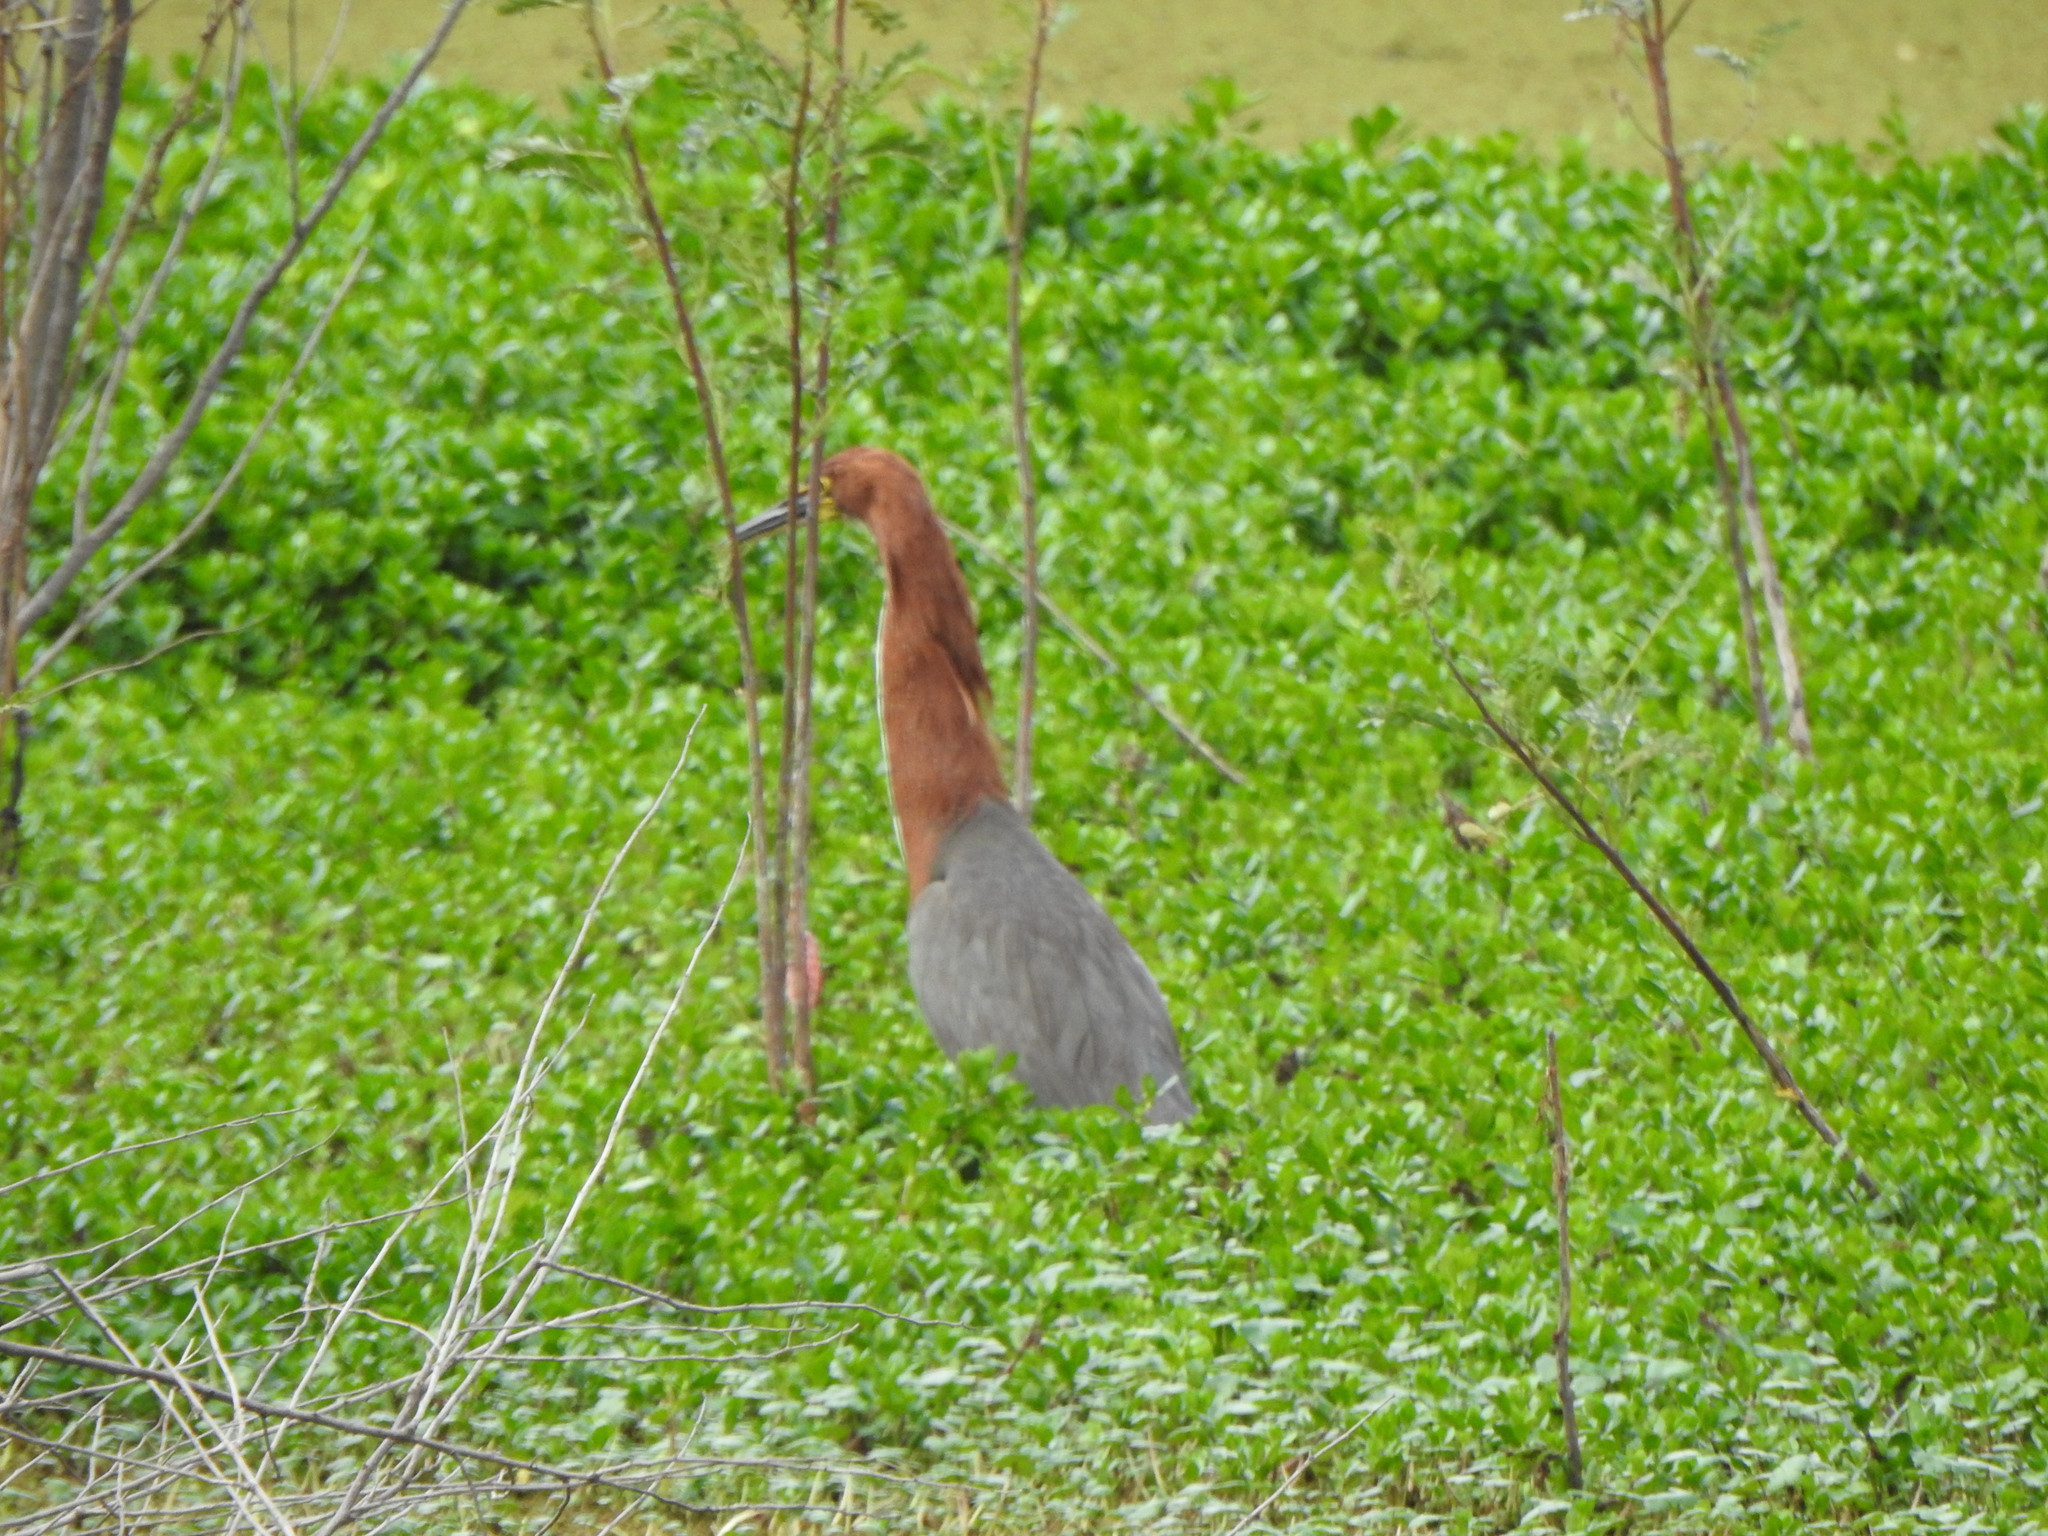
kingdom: Animalia
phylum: Chordata
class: Aves
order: Pelecaniformes
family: Ardeidae
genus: Tigrisoma
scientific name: Tigrisoma lineatum
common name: Rufescent tiger-heron
